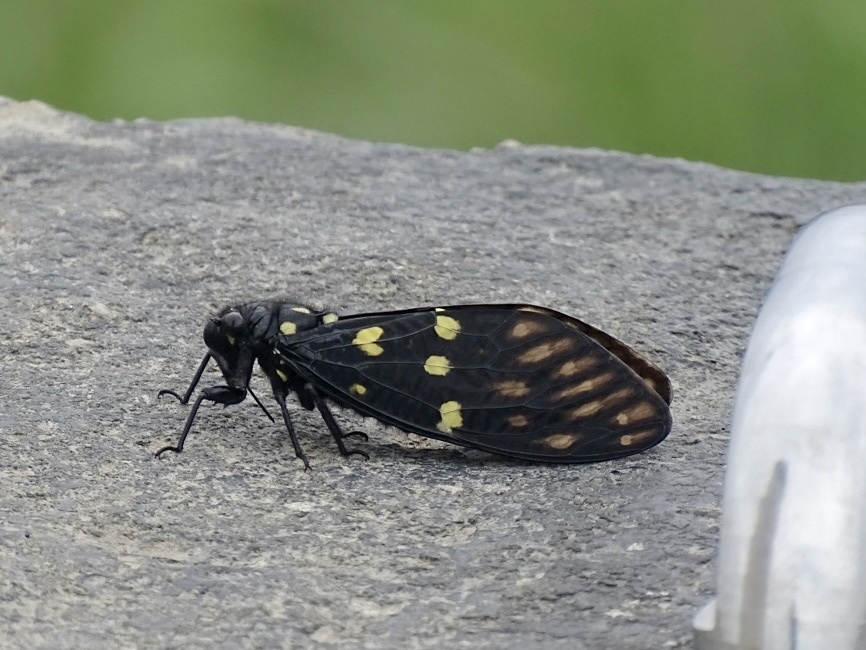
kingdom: Animalia
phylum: Arthropoda
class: Insecta
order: Hemiptera
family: Cicadidae
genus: Gaeana
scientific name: Gaeana maculata
